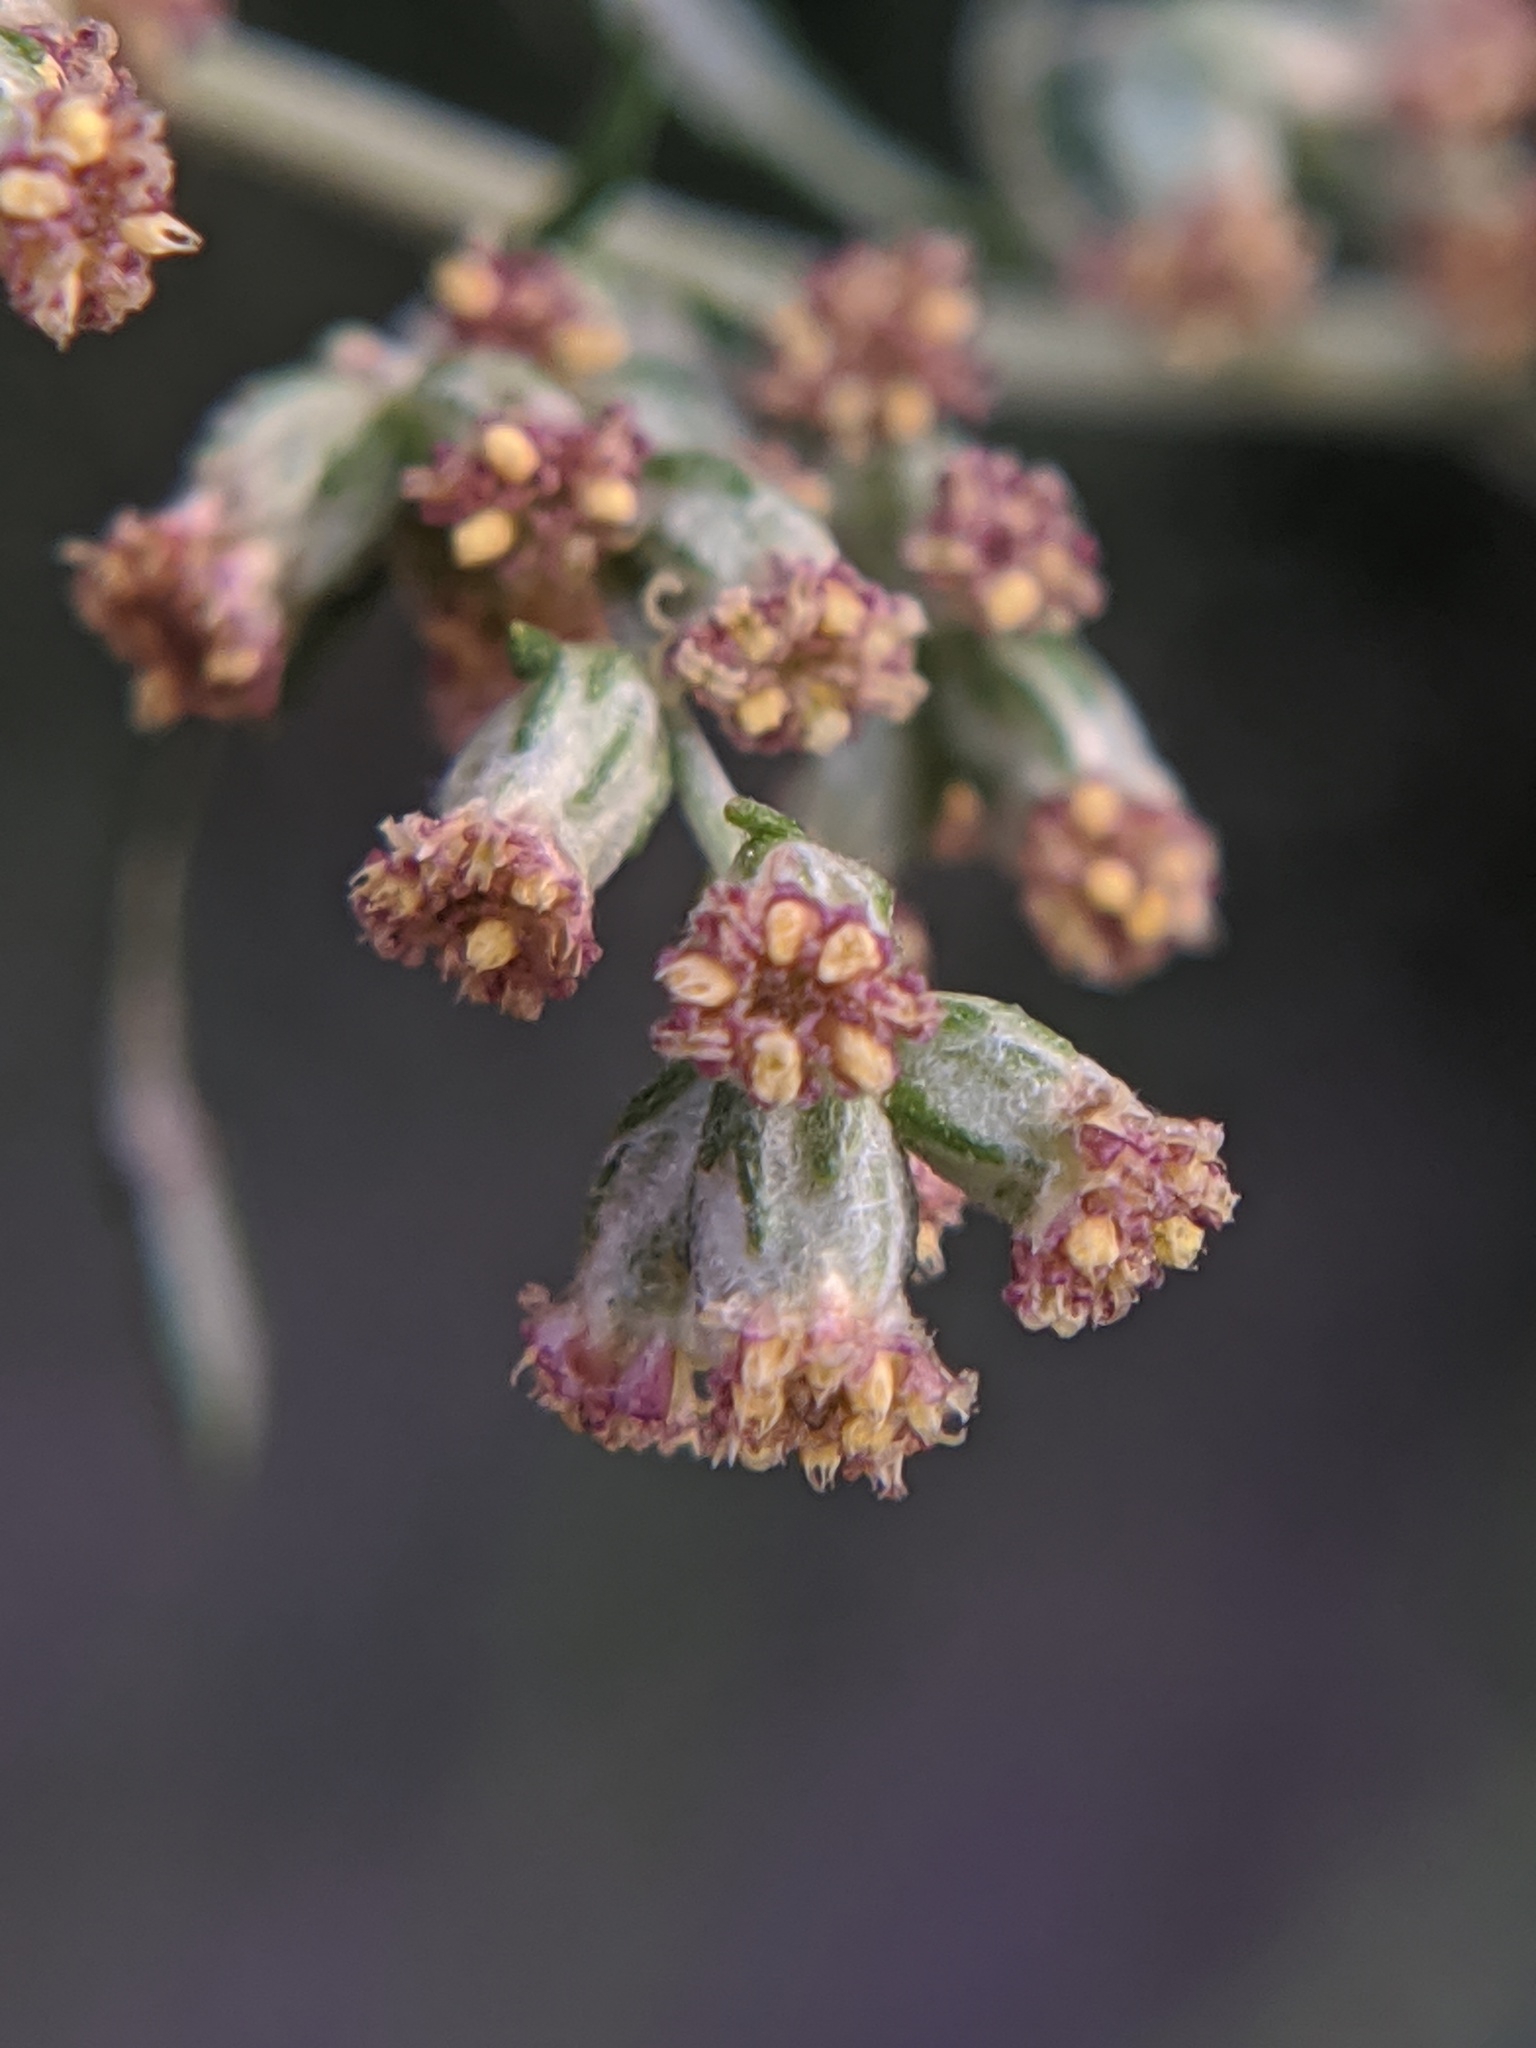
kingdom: Plantae
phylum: Tracheophyta
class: Magnoliopsida
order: Asterales
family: Asteraceae
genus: Artemisia
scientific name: Artemisia vulgaris
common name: Mugwort
